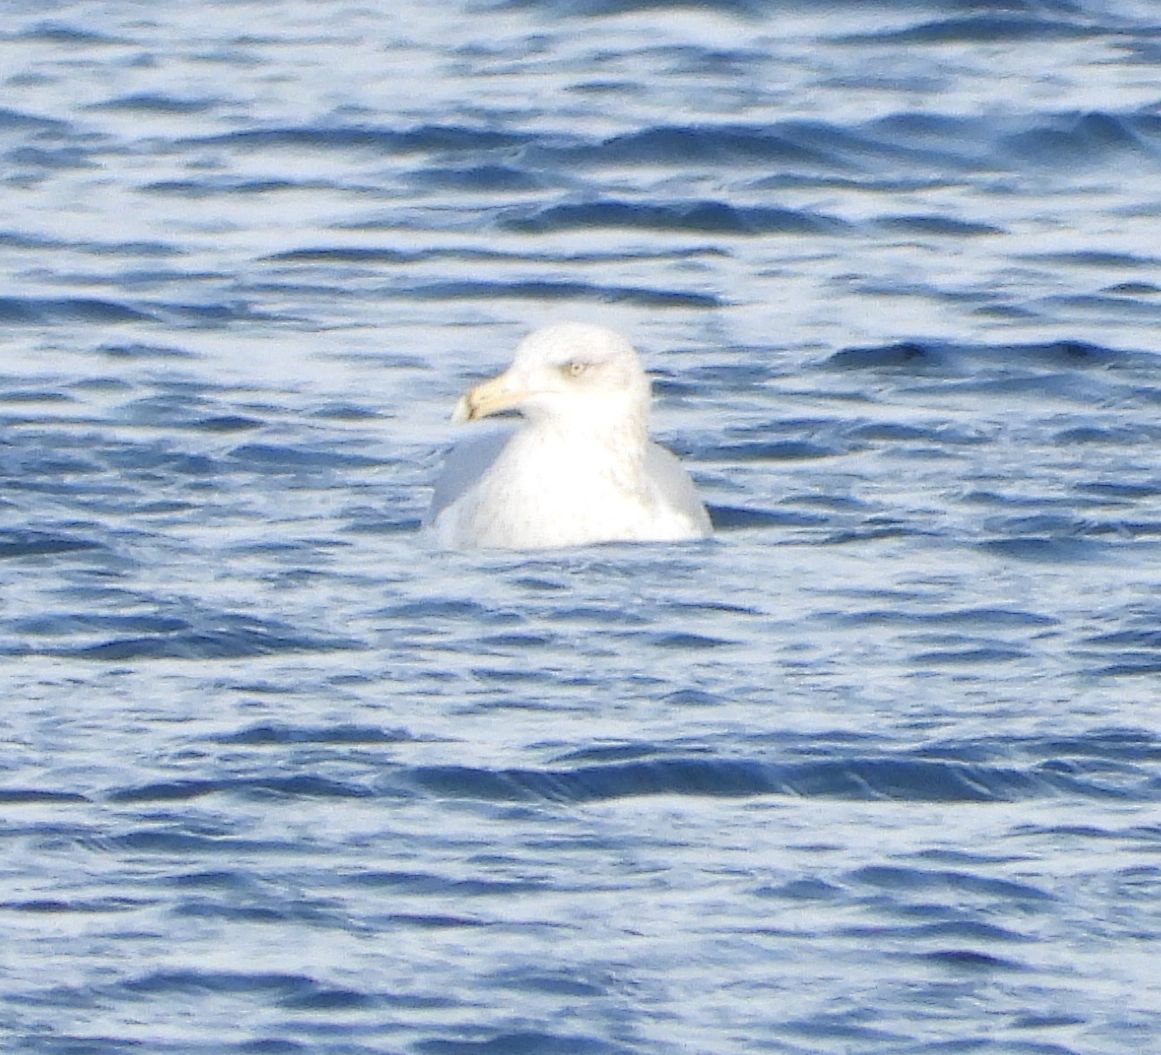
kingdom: Animalia
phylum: Chordata
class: Aves
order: Charadriiformes
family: Laridae
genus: Larus
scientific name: Larus argentatus
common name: Herring gull
